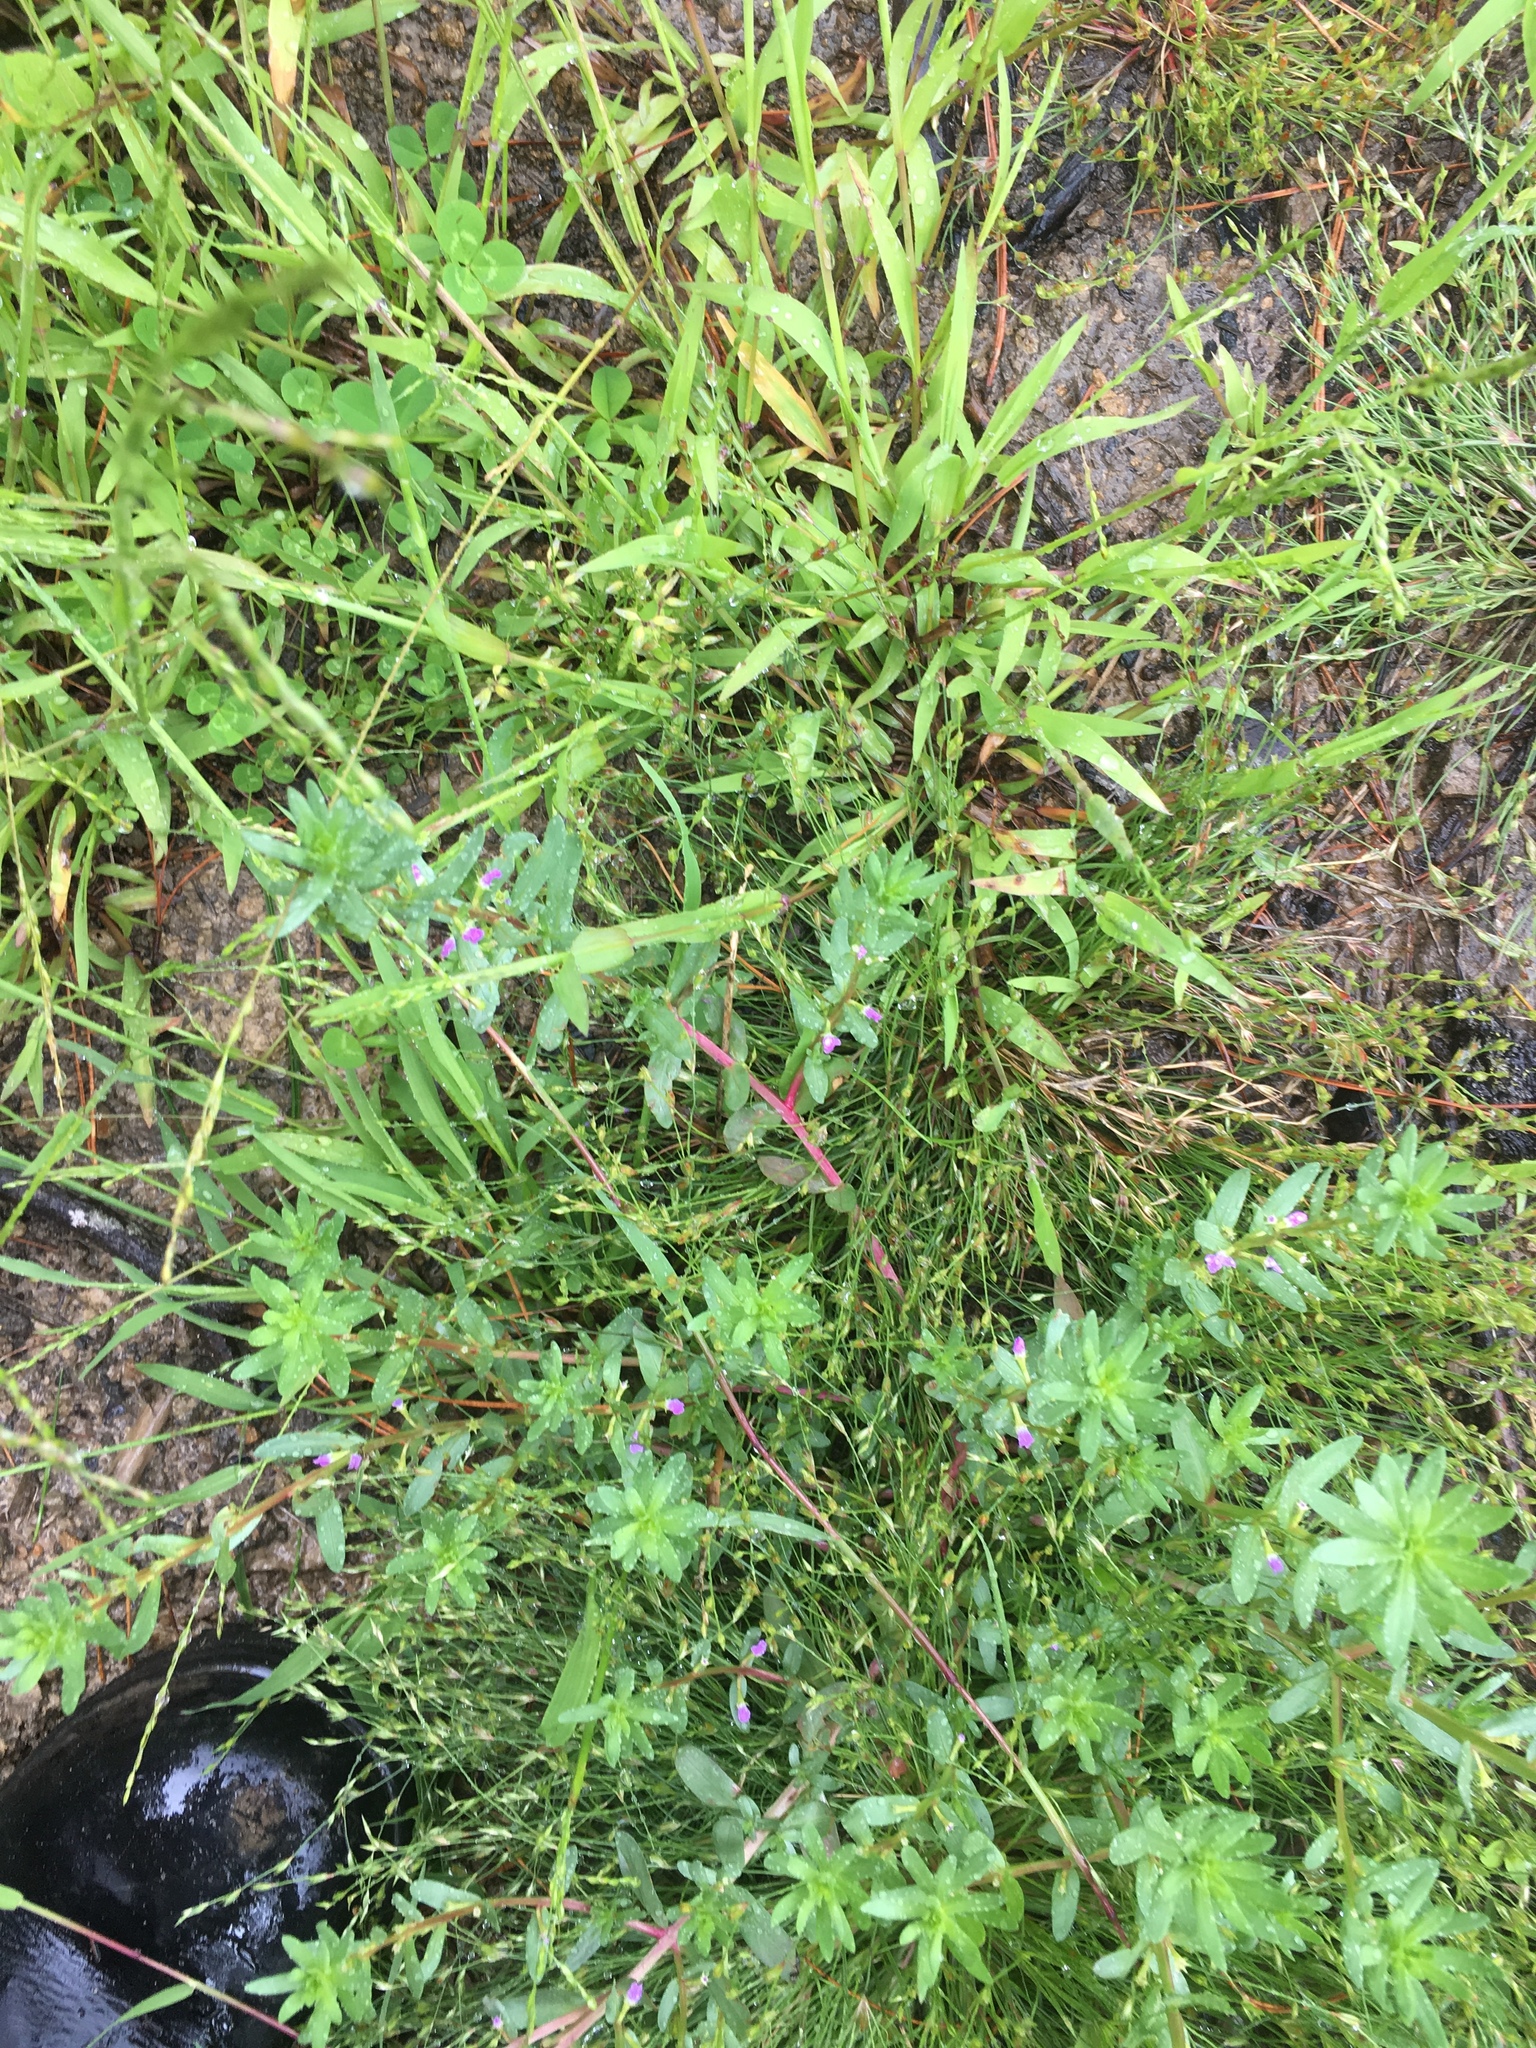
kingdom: Plantae
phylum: Tracheophyta
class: Magnoliopsida
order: Myrtales
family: Lythraceae
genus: Lythrum
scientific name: Lythrum hyssopifolia
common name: Grass-poly
